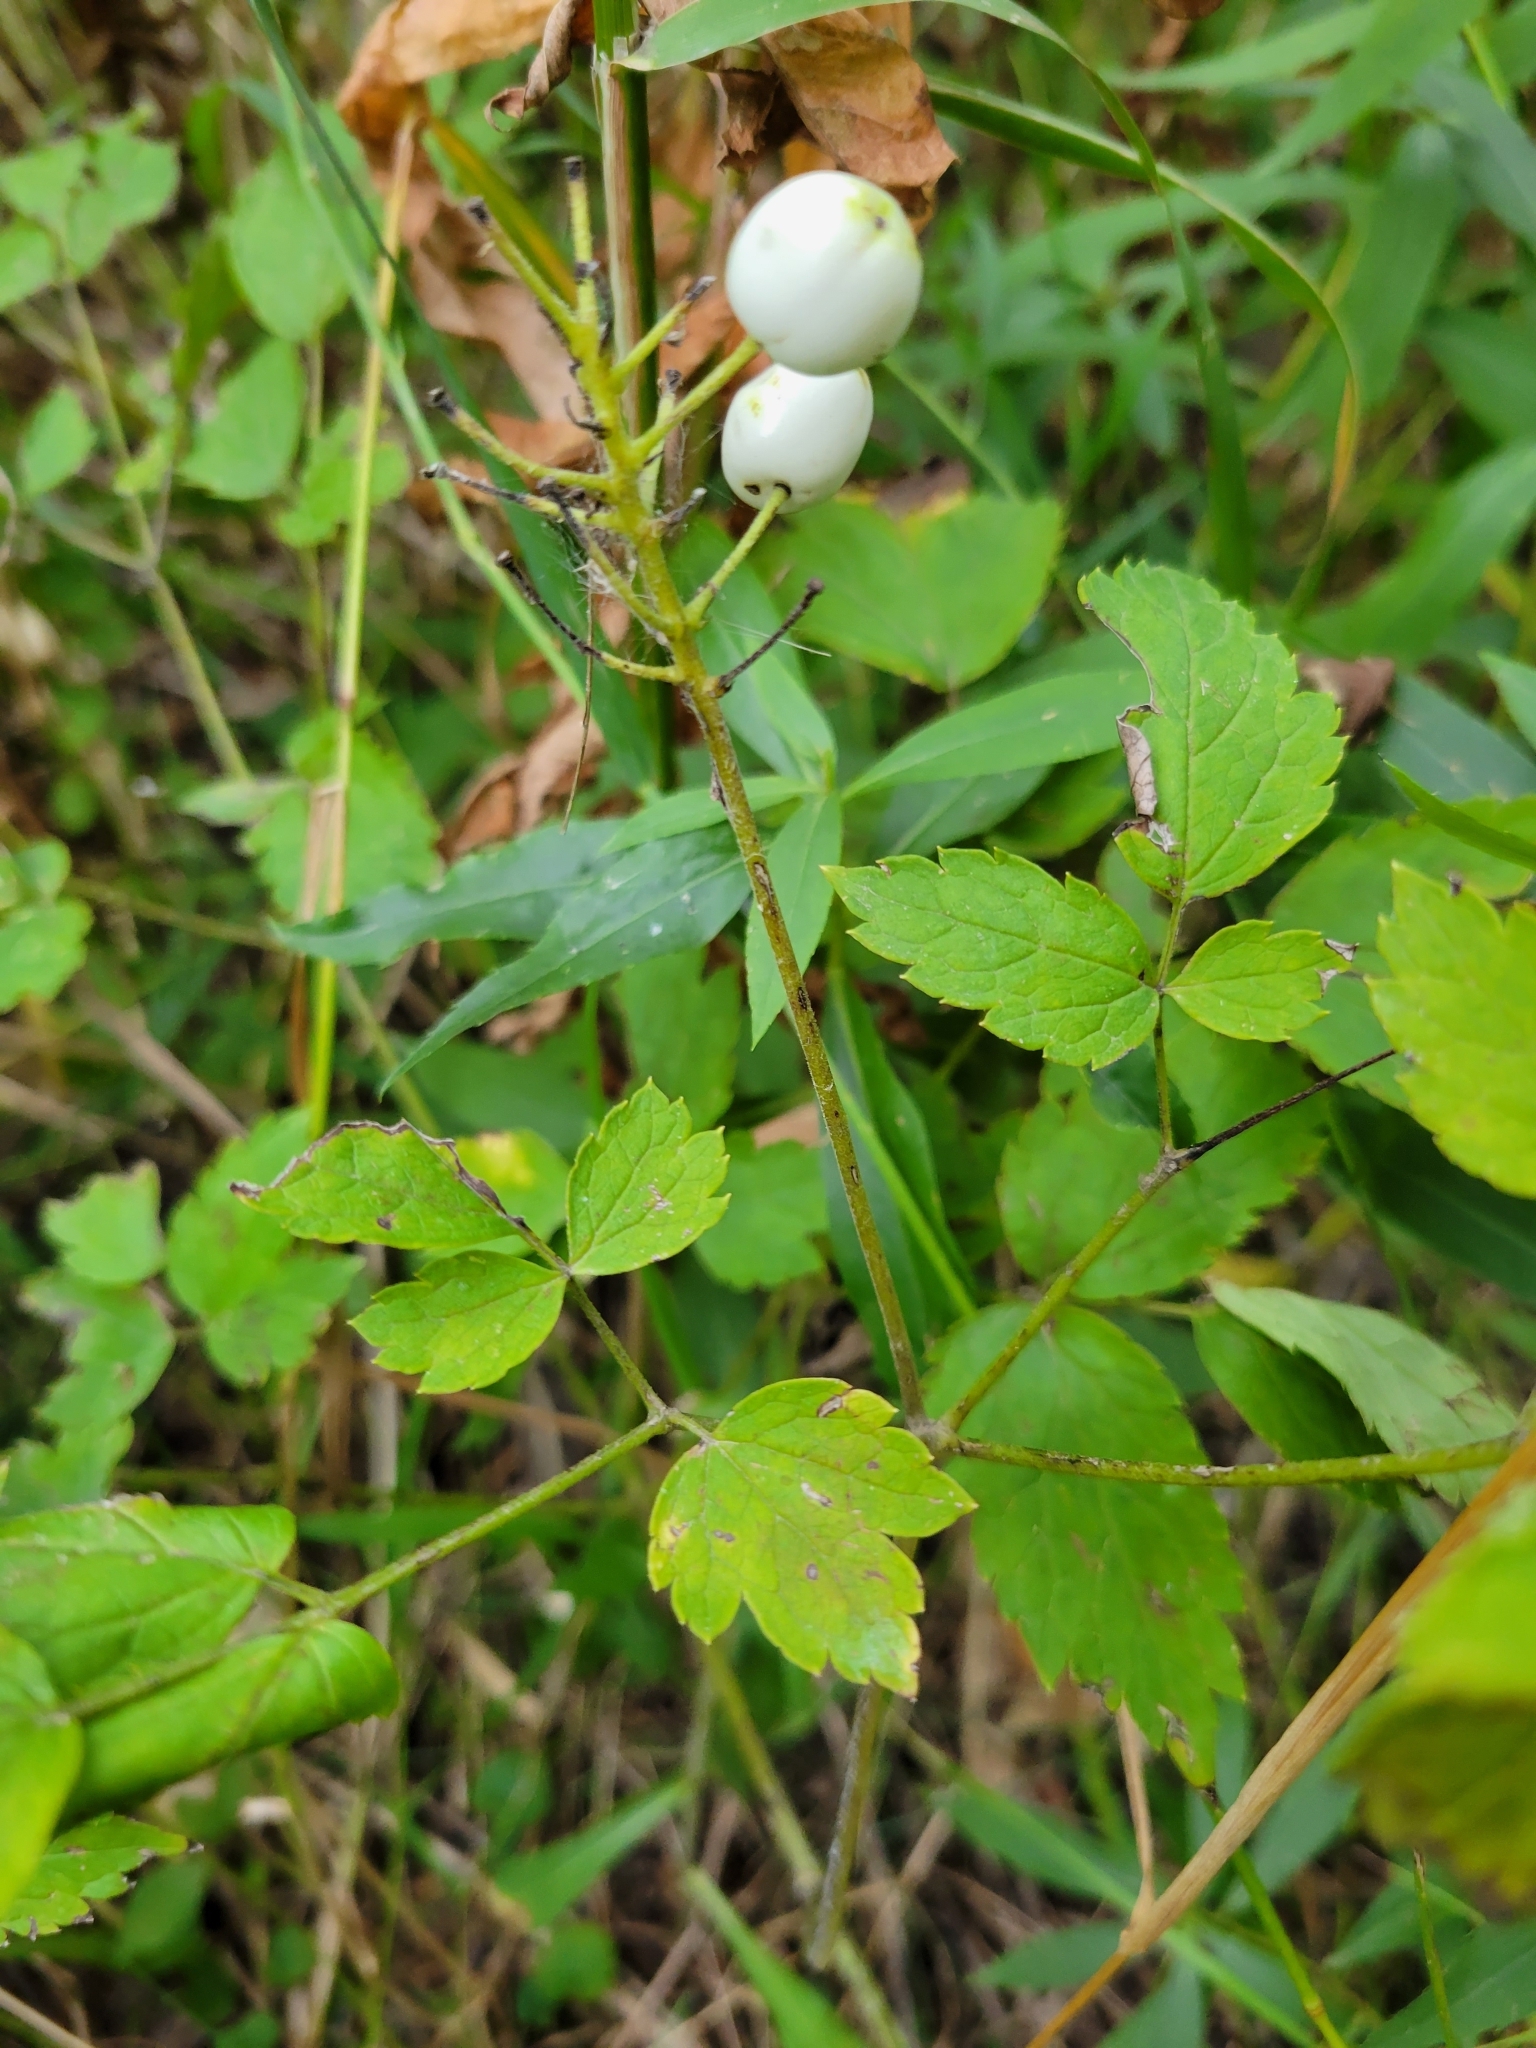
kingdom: Plantae
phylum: Tracheophyta
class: Magnoliopsida
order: Ranunculales
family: Ranunculaceae
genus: Actaea
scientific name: Actaea rubra
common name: Red baneberry
